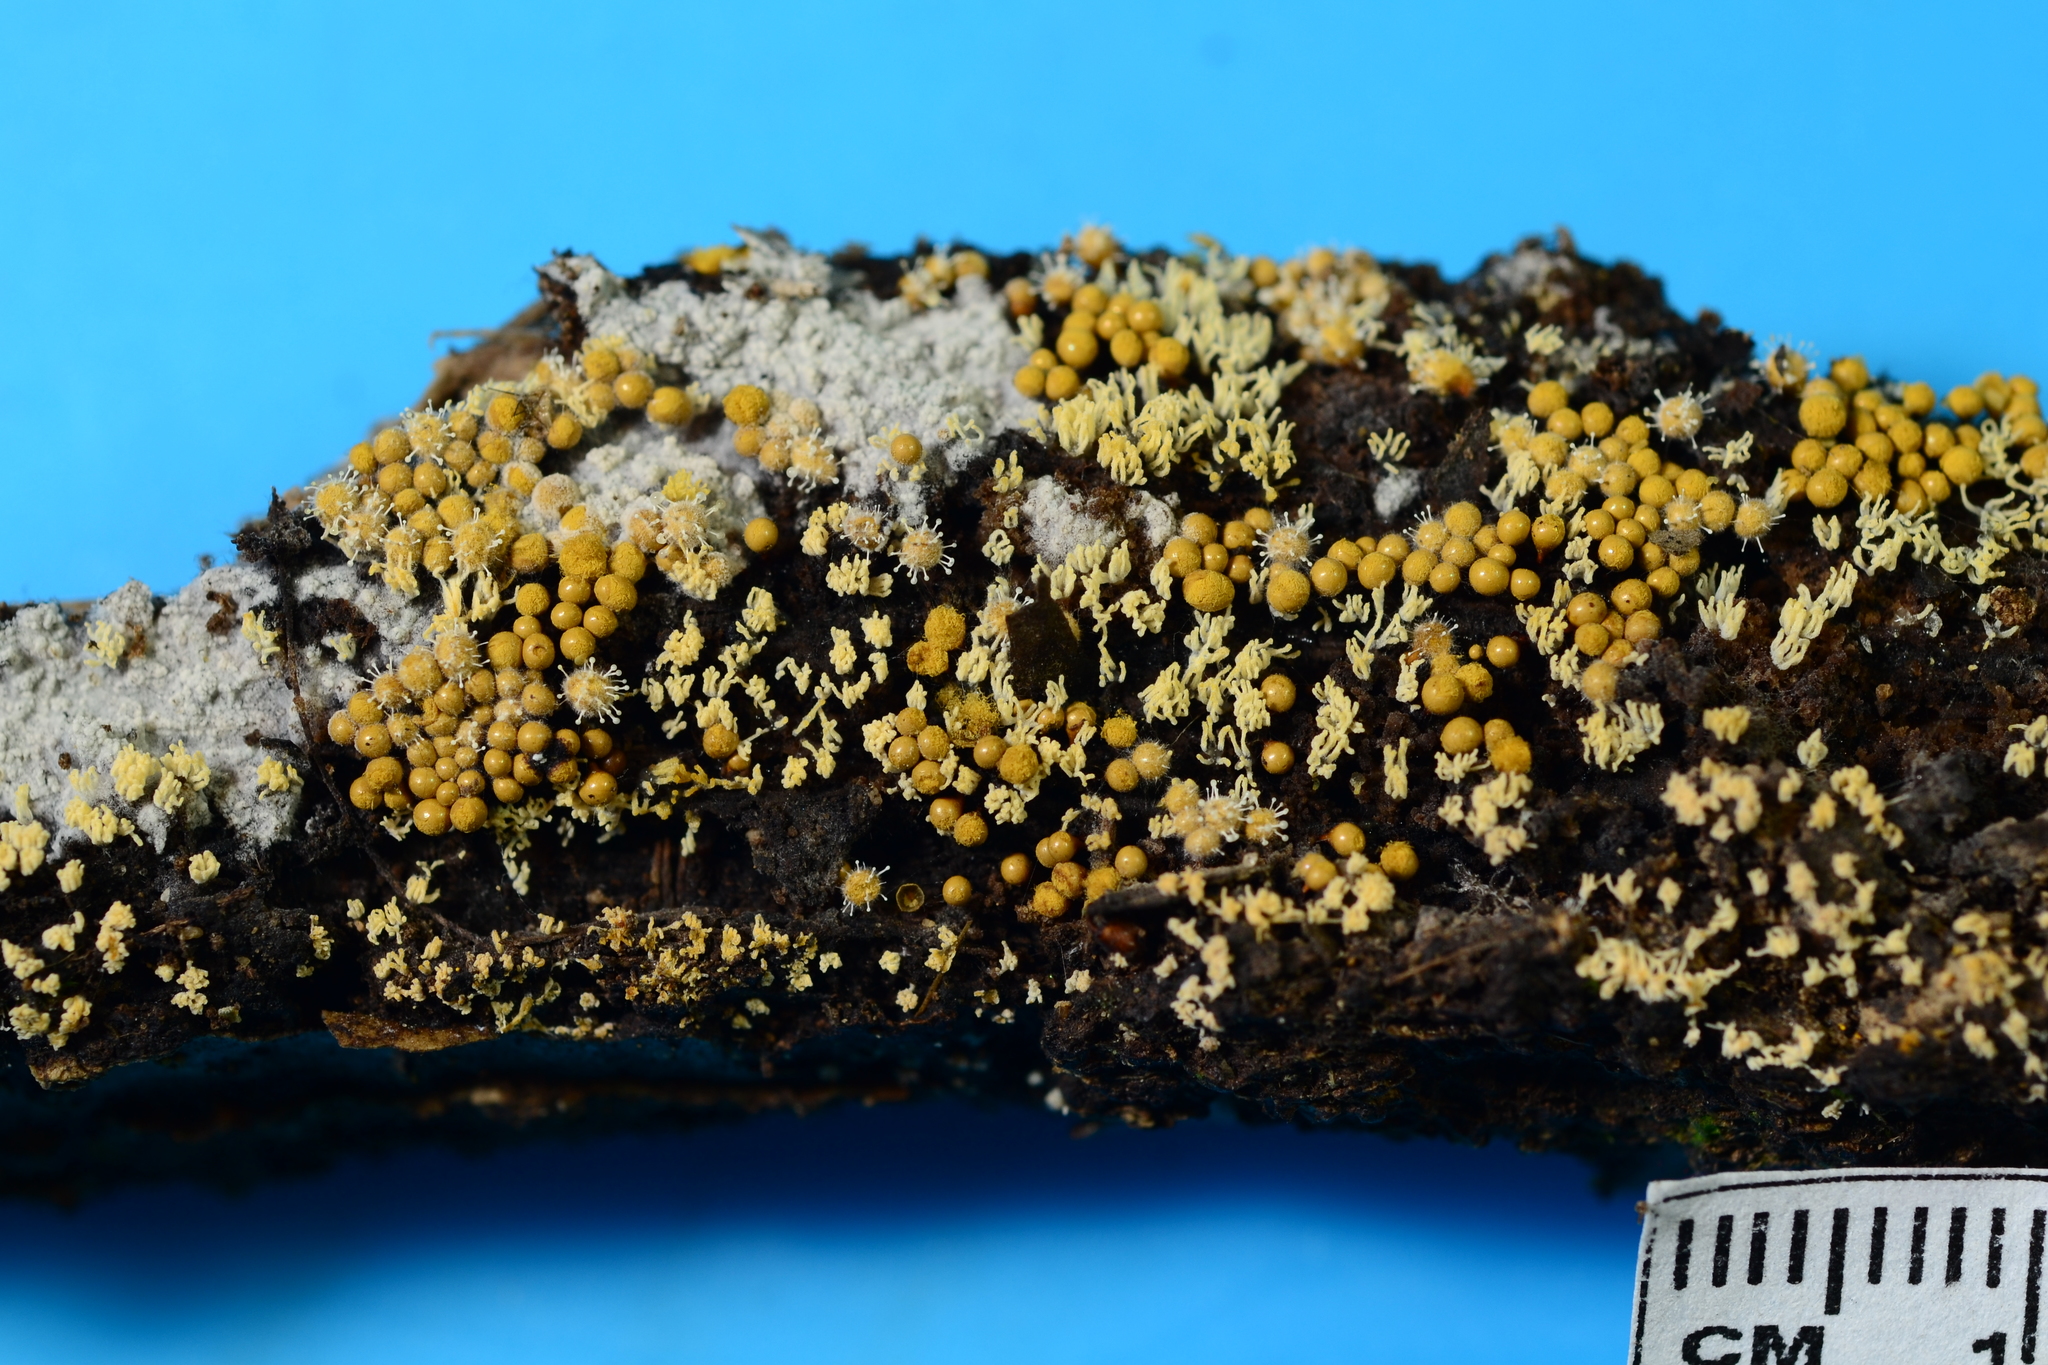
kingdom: Fungi
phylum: Ascomycota
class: Sordariomycetes
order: Hypocreales
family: Ophiocordycipitaceae
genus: Polycephalomyces
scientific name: Polycephalomyces tomentosus
